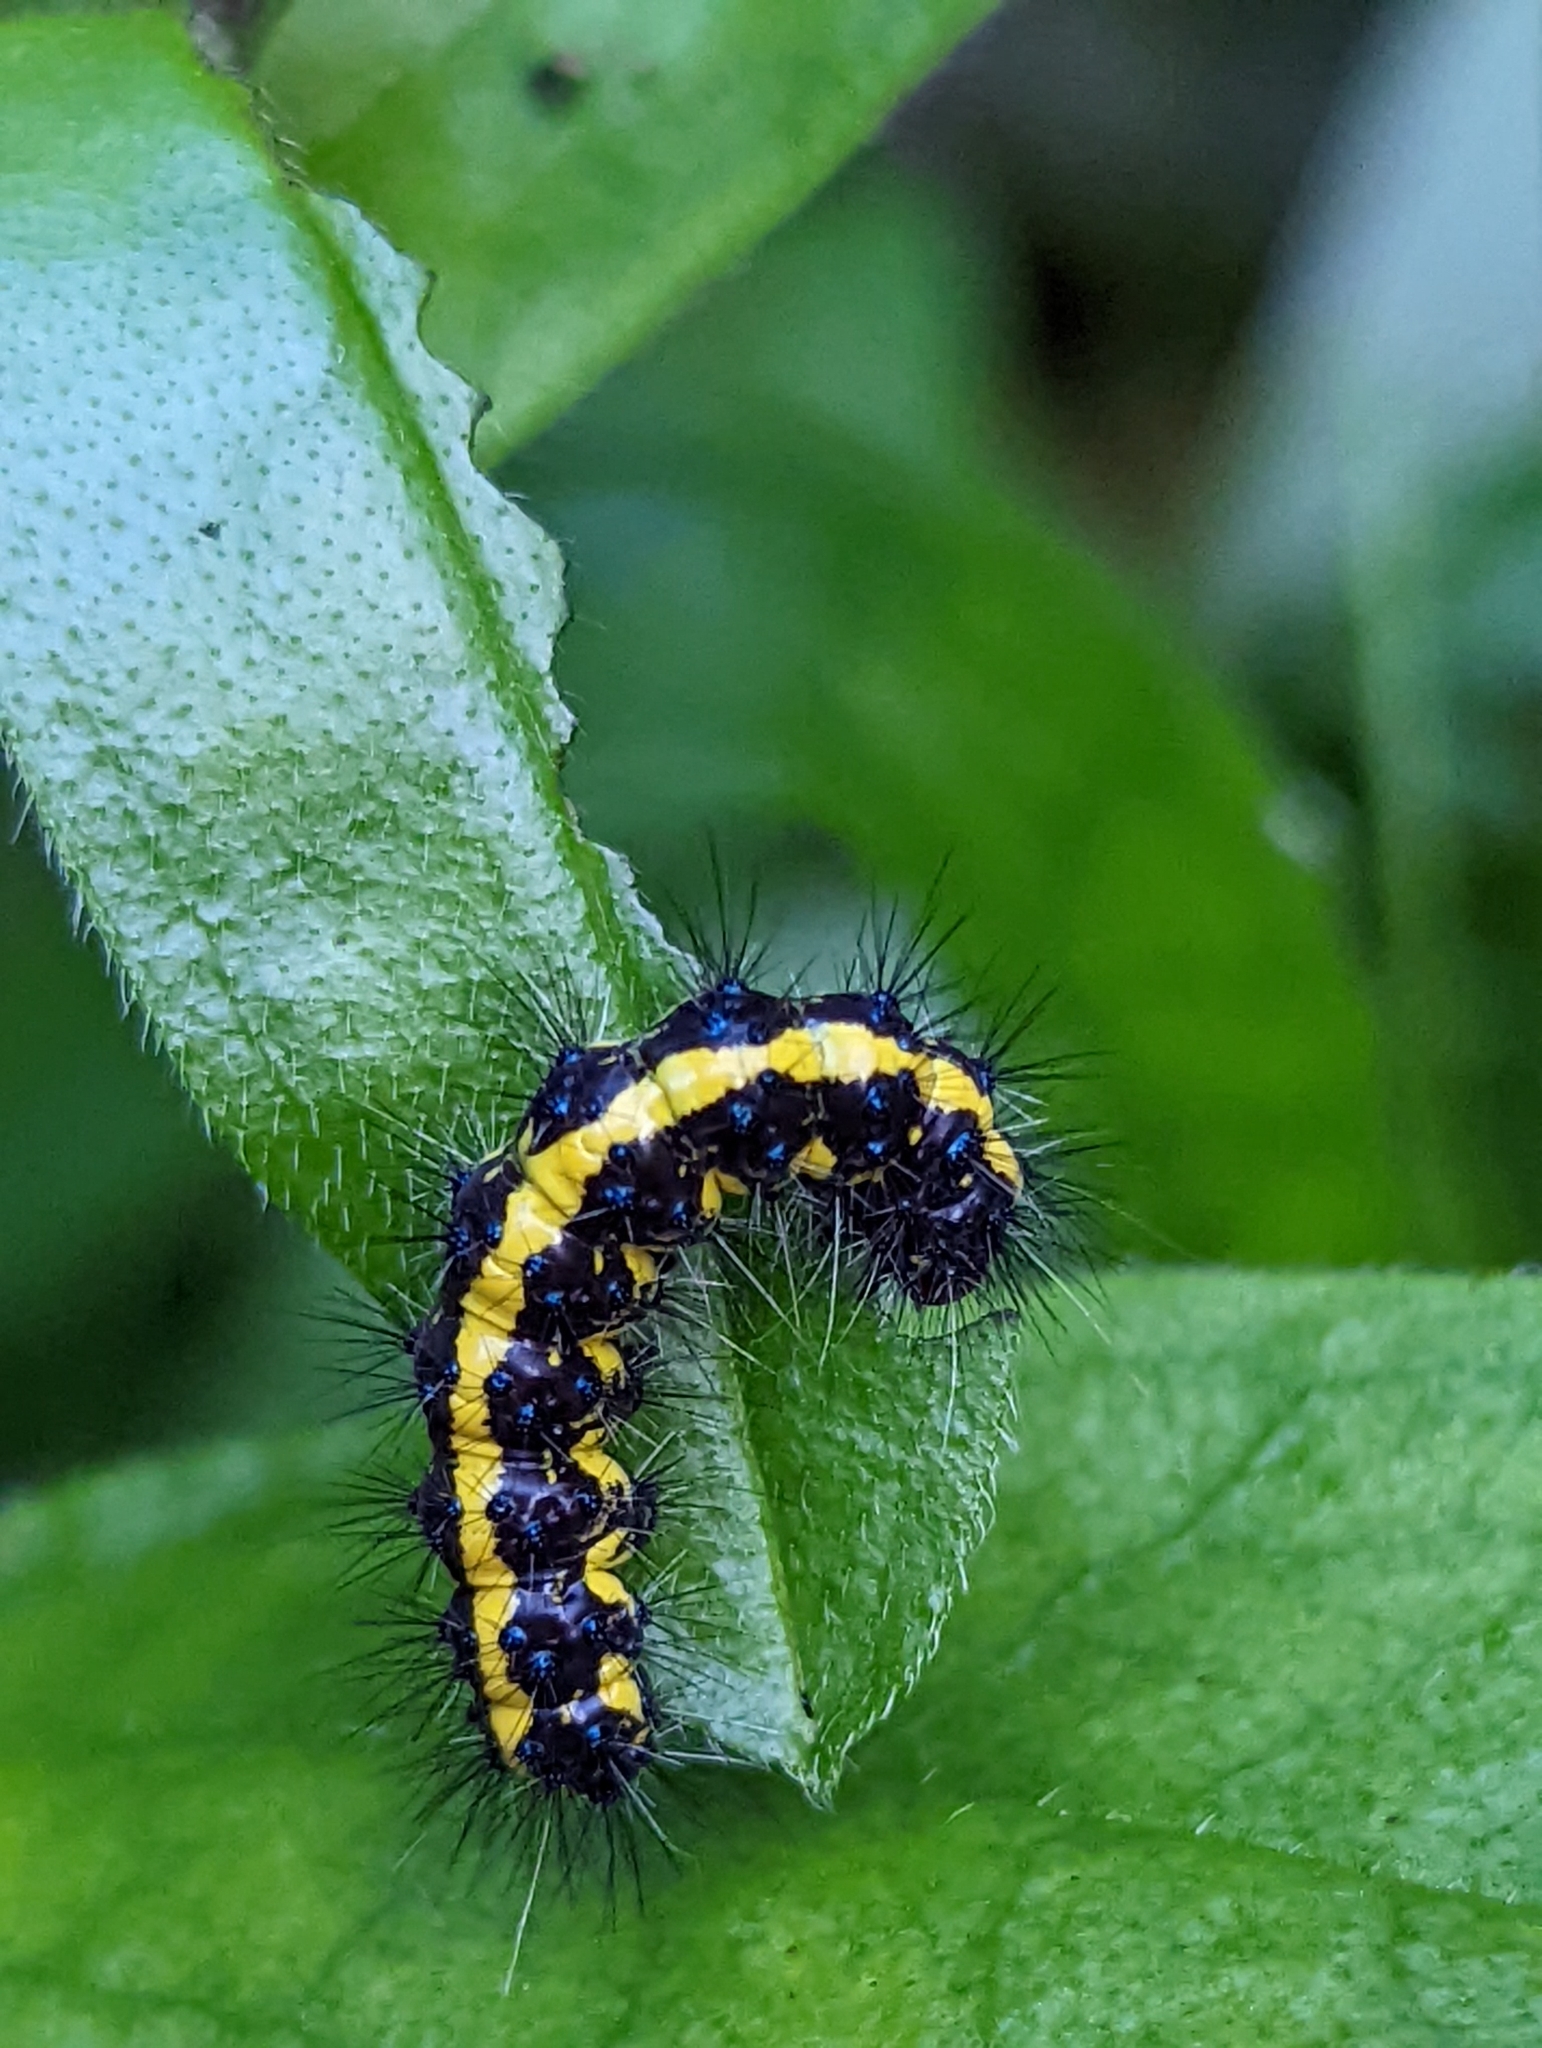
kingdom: Animalia
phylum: Arthropoda
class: Insecta
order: Lepidoptera
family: Erebidae
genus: Gnophaela
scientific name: Gnophaela latipennis
